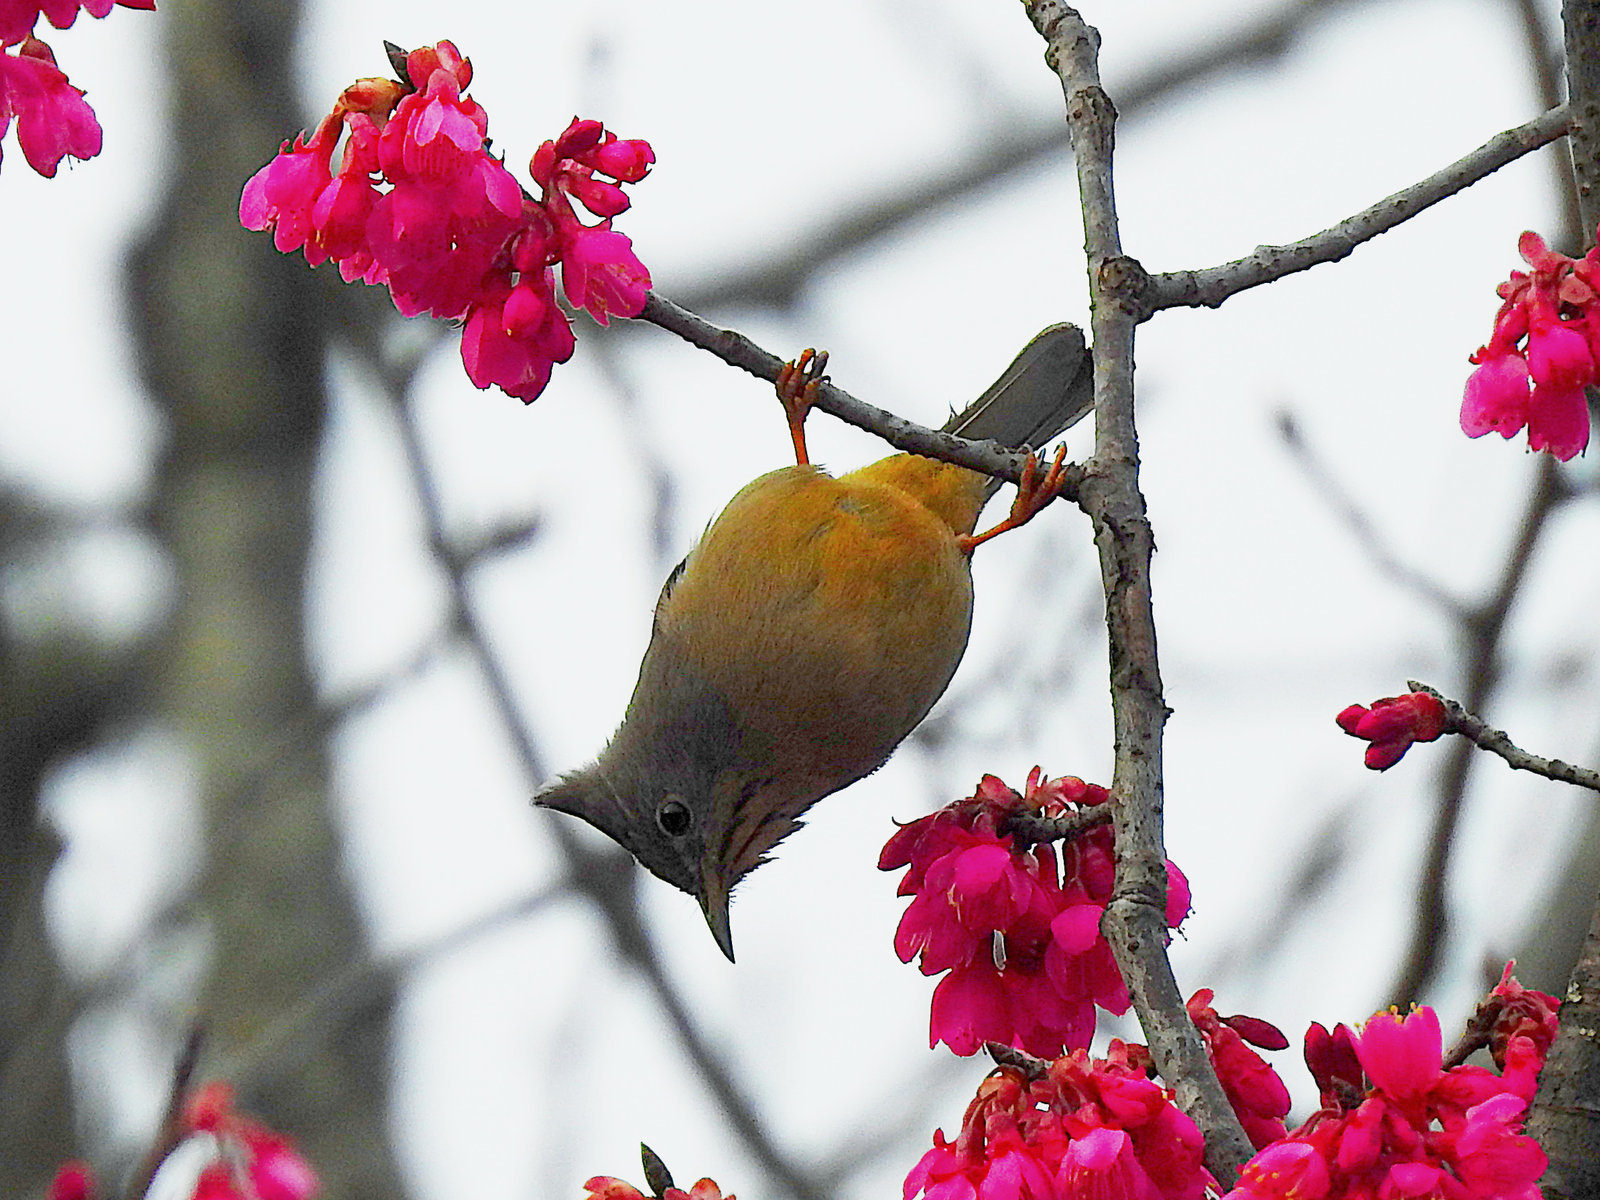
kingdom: Animalia
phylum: Chordata
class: Aves
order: Passeriformes
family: Zosteropidae
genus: Yuhina
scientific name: Yuhina gularis
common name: Stripe-throated yuhina
